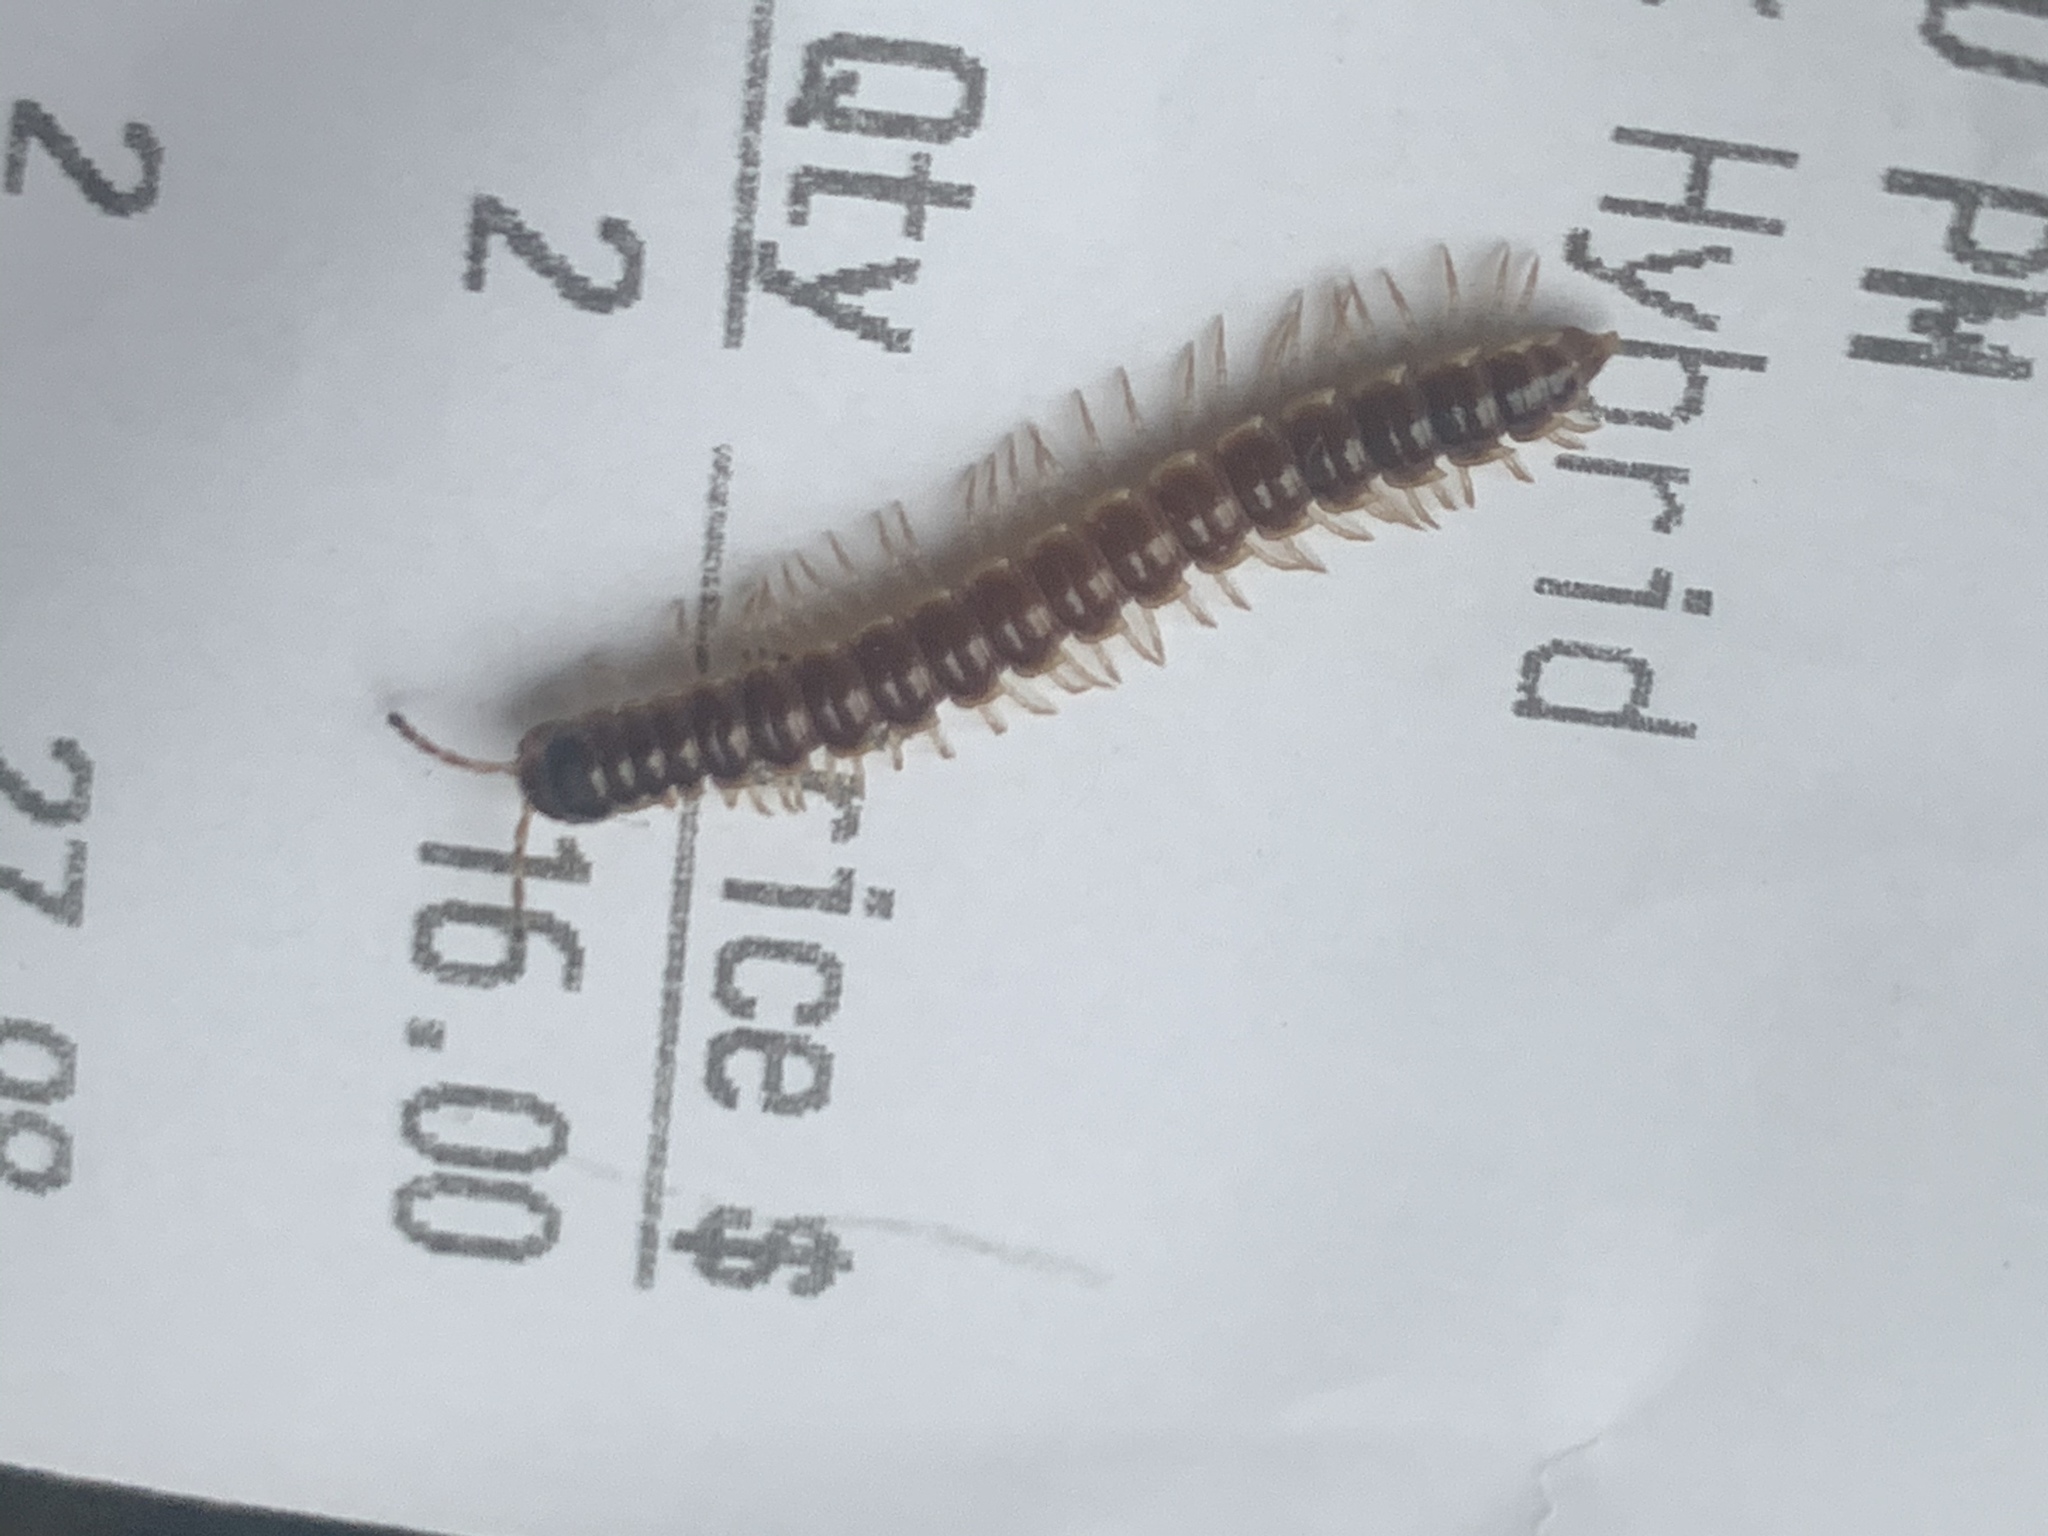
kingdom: Animalia
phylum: Arthropoda
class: Diplopoda
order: Polydesmida
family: Paradoxosomatidae
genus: Oxidus
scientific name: Oxidus gracilis
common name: Greenhouse millipede
